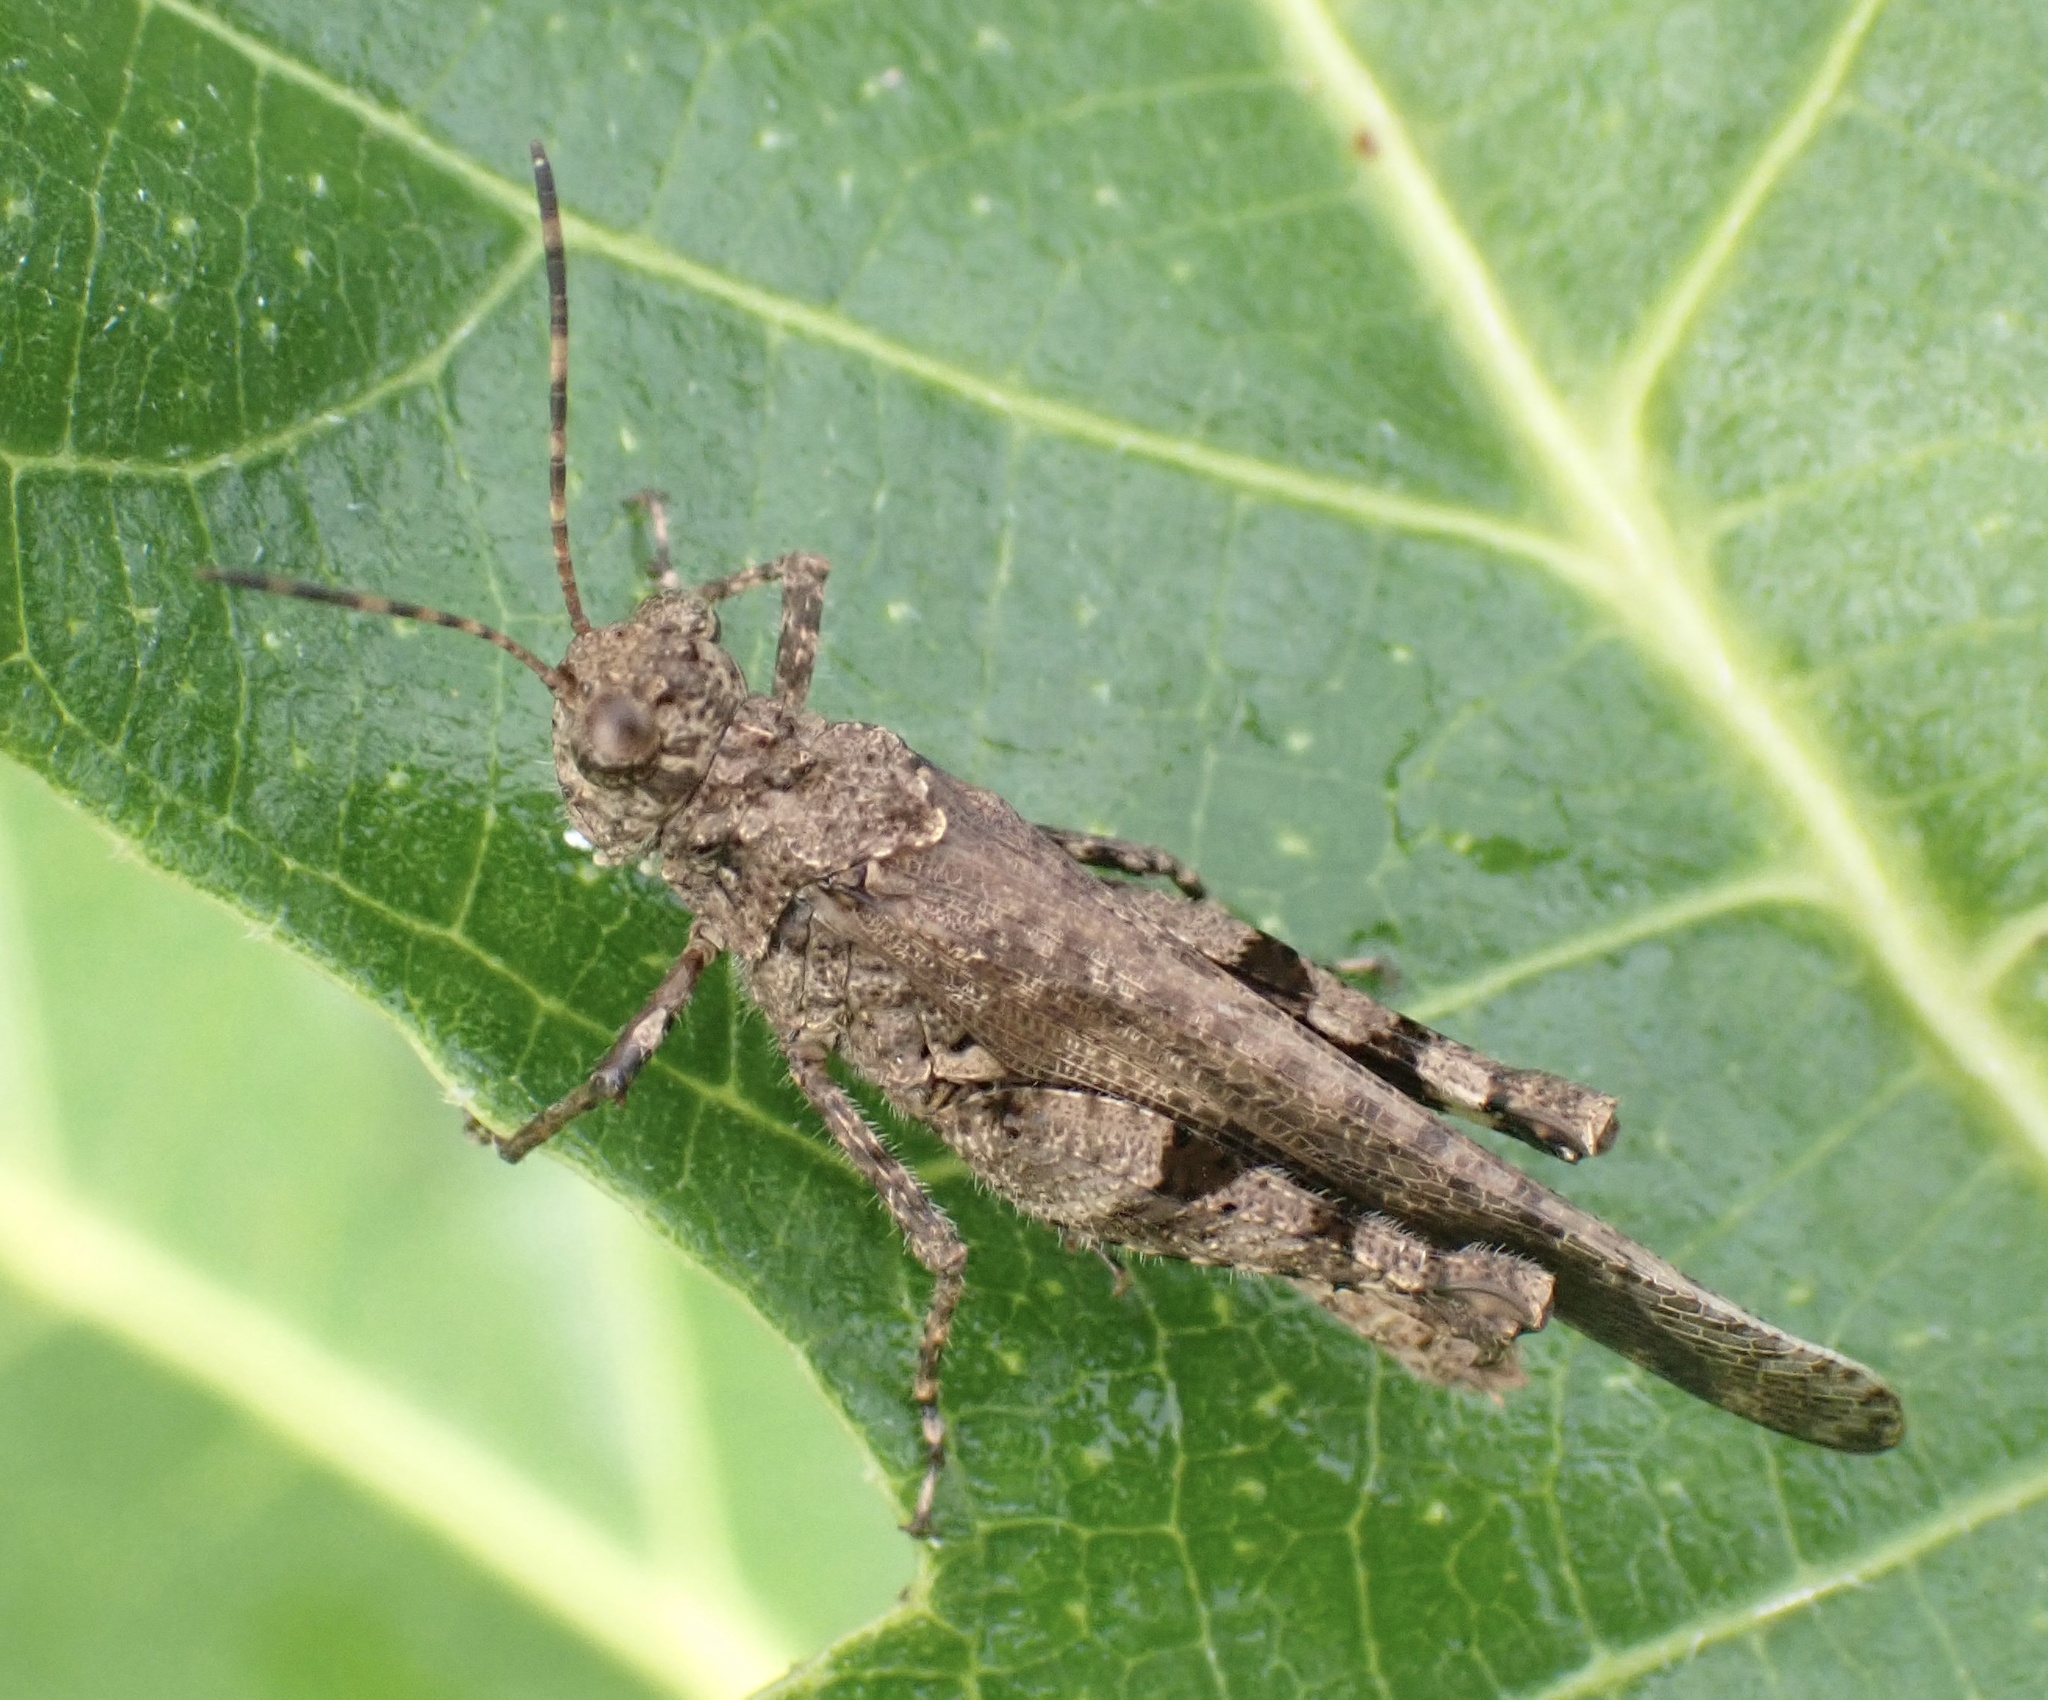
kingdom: Animalia
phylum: Arthropoda
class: Insecta
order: Orthoptera
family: Acrididae
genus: Trilophidia
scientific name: Trilophidia annulata
